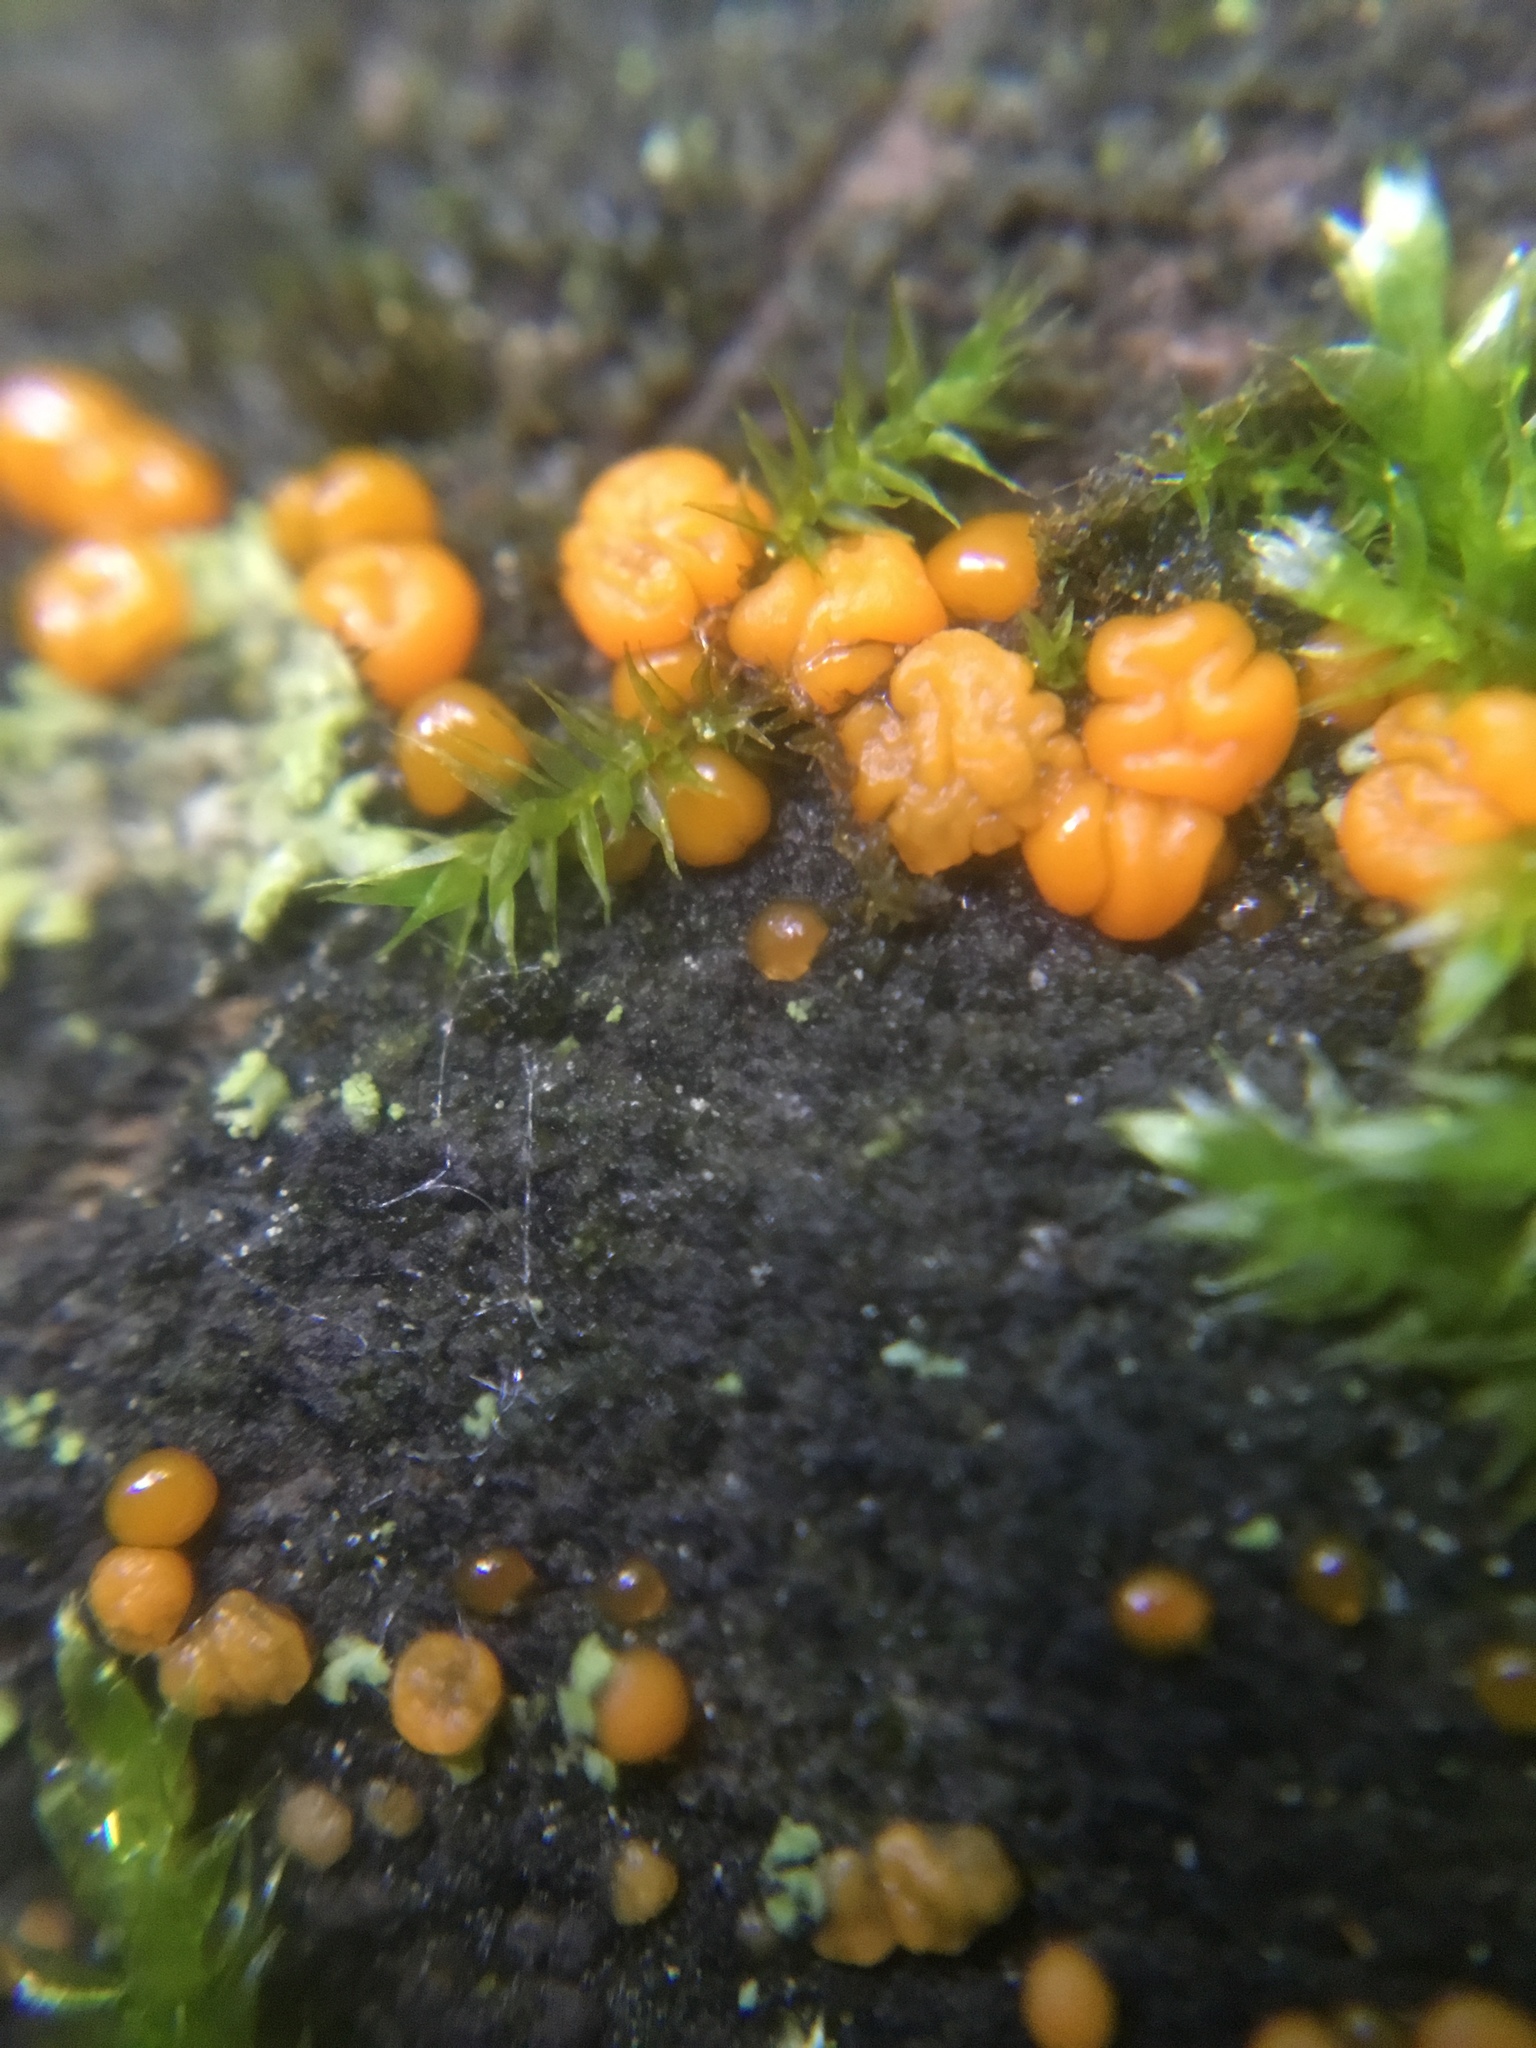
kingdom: Fungi
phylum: Basidiomycota
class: Dacrymycetes
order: Dacrymycetales
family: Dacrymycetaceae
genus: Dacrymyces
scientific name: Dacrymyces stillatus
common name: Common jelly spot
